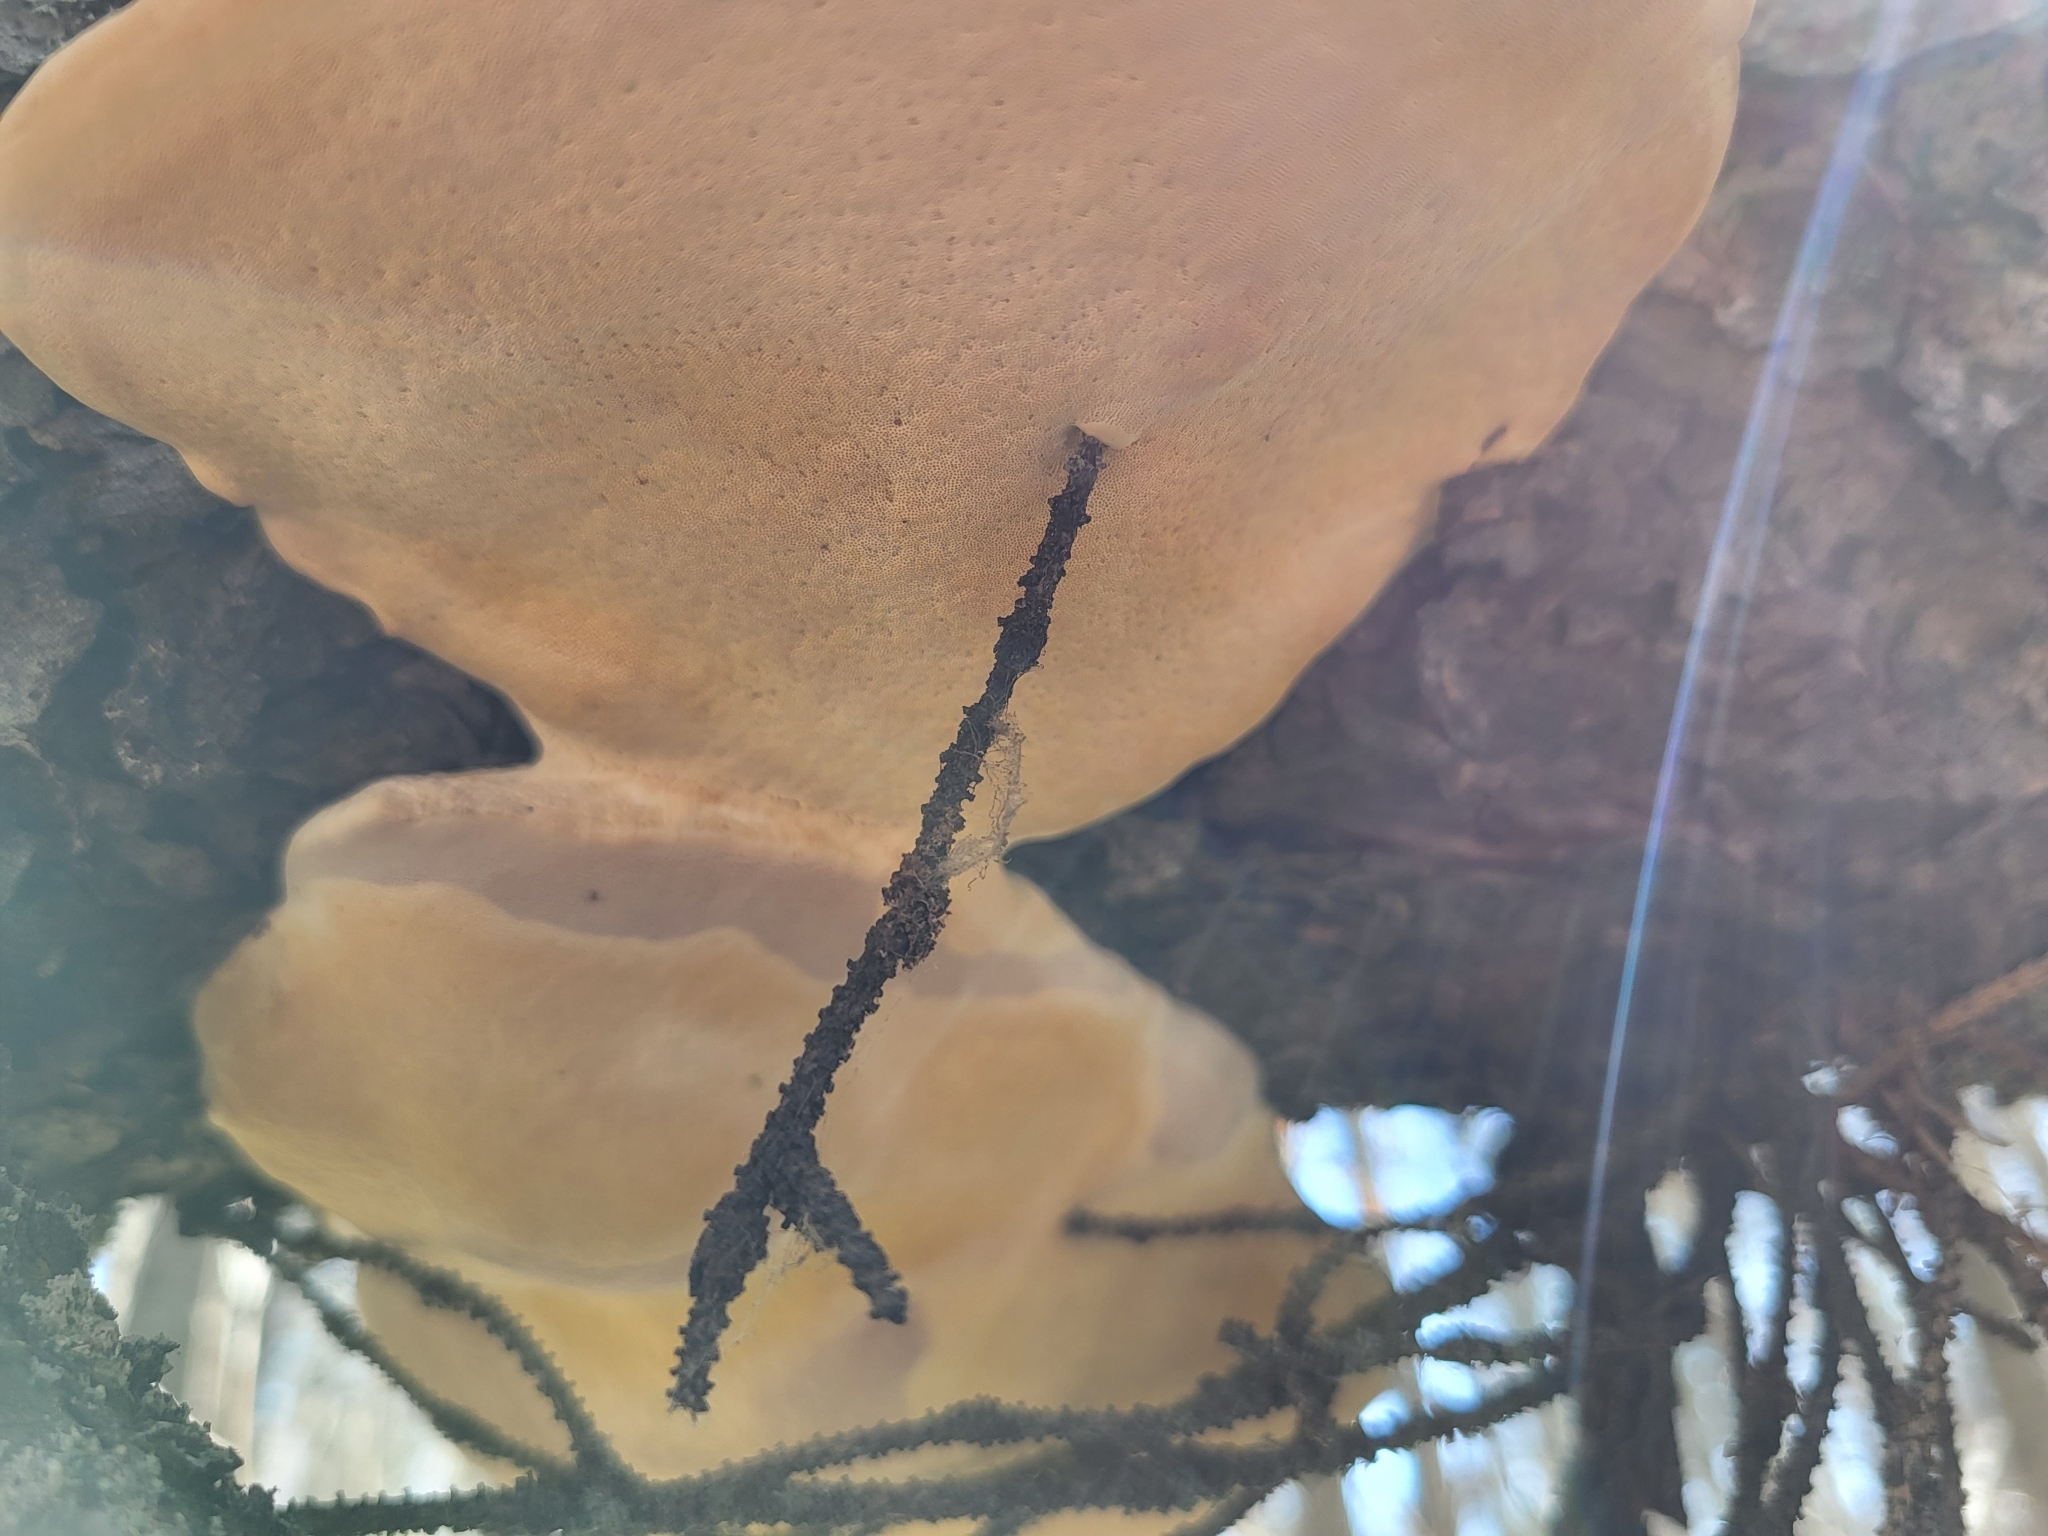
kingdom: Fungi
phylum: Basidiomycota
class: Agaricomycetes
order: Polyporales
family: Fomitopsidaceae
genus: Fomitopsis
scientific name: Fomitopsis mounceae
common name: Northern red belt
